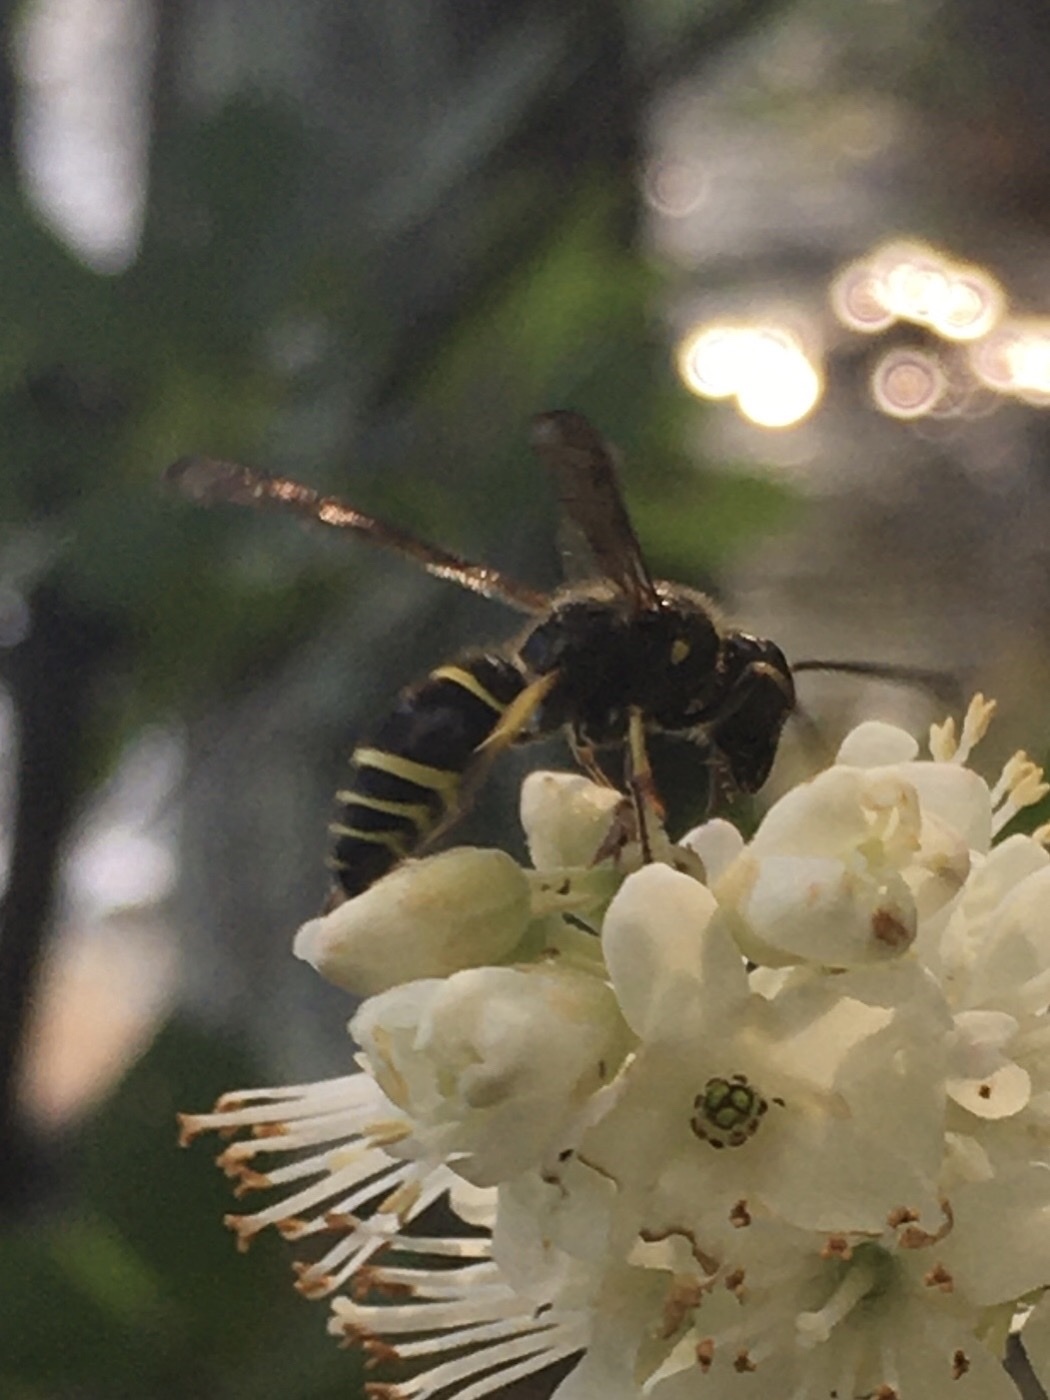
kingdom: Animalia
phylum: Arthropoda
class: Insecta
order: Hymenoptera
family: Vespidae
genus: Ancistrocerus
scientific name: Ancistrocerus
